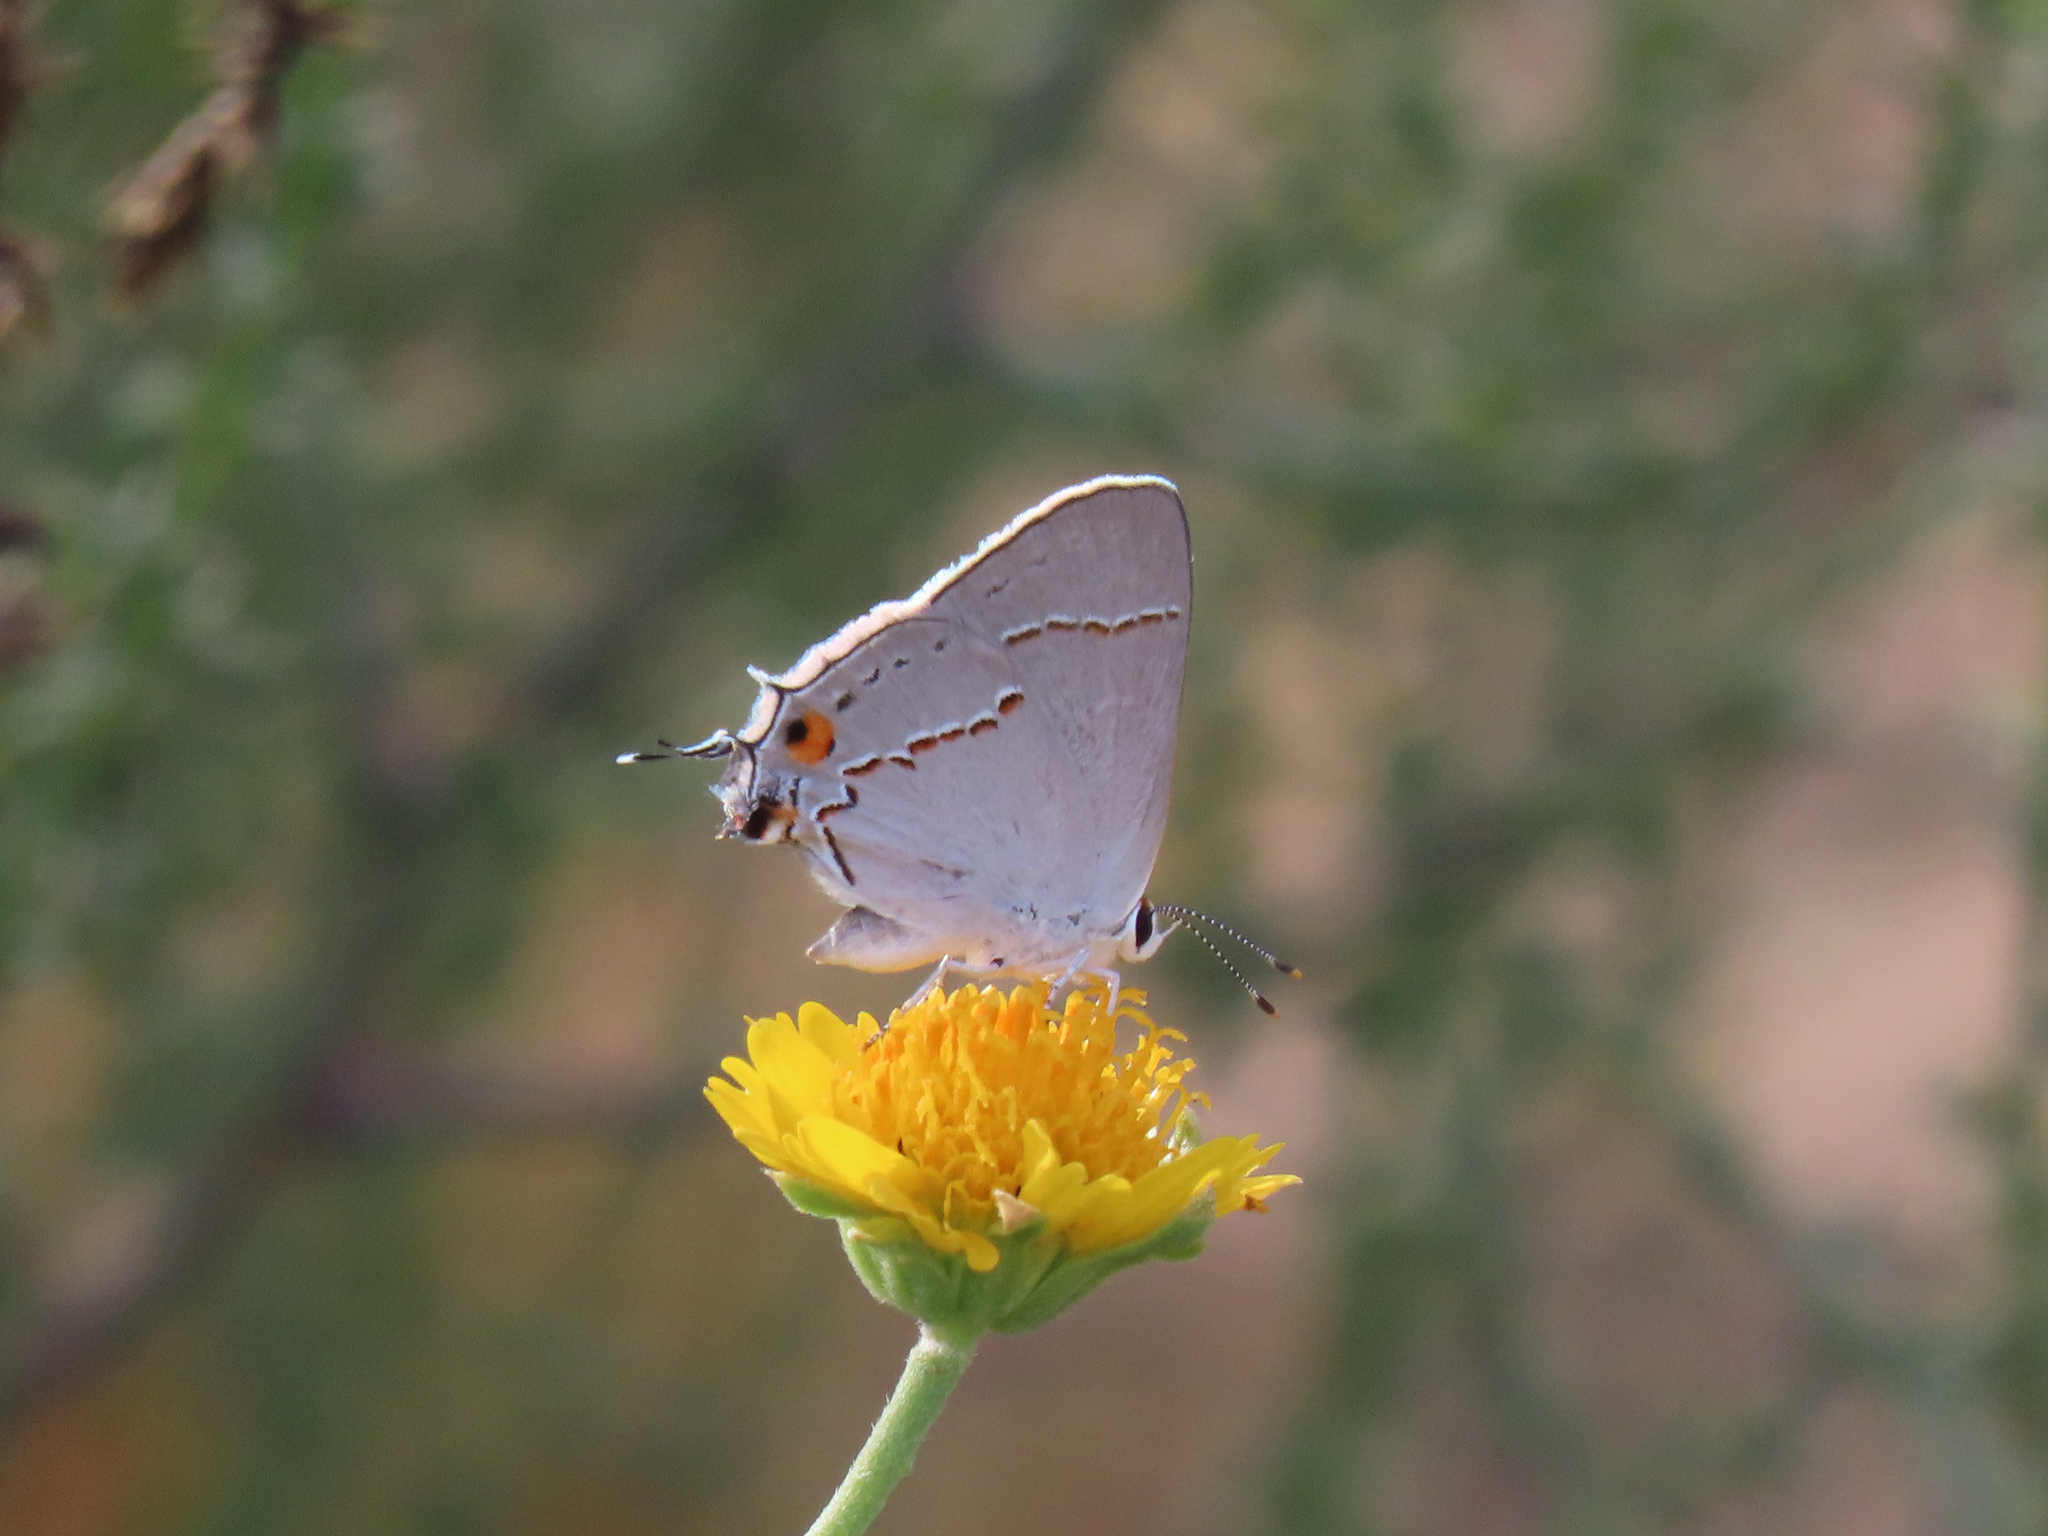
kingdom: Animalia
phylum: Arthropoda
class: Insecta
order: Lepidoptera
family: Lycaenidae
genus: Strymon
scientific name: Strymon melinus
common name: Gray hairstreak
